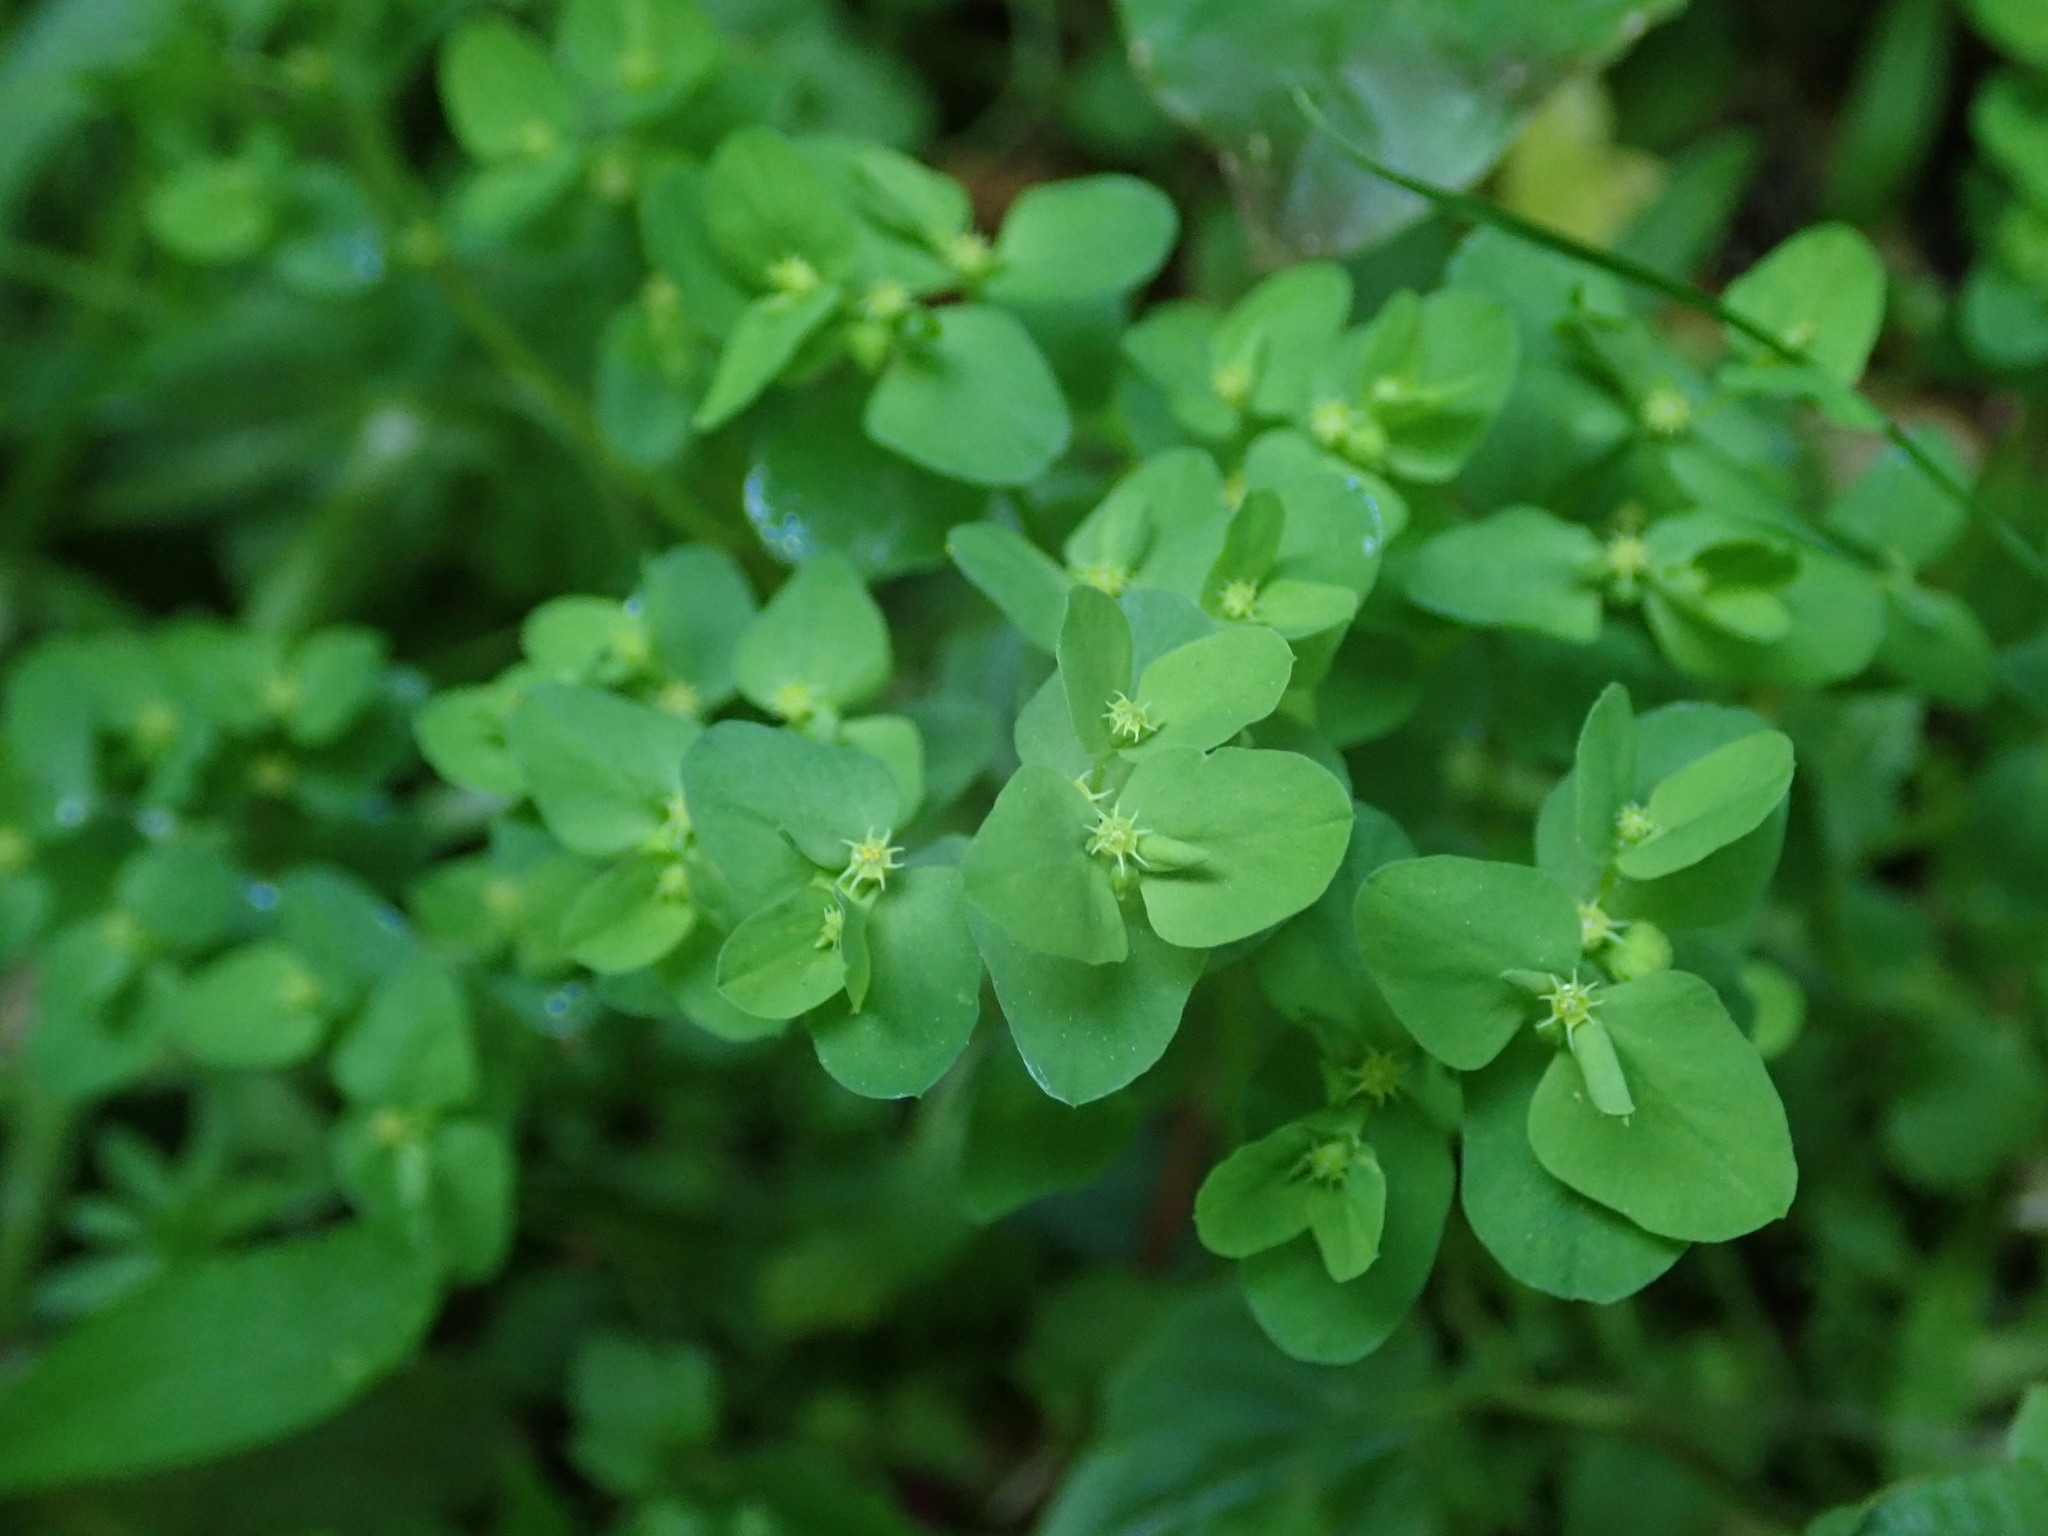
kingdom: Plantae
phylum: Tracheophyta
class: Magnoliopsida
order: Malpighiales
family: Euphorbiaceae
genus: Euphorbia
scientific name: Euphorbia peplus
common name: Petty spurge
